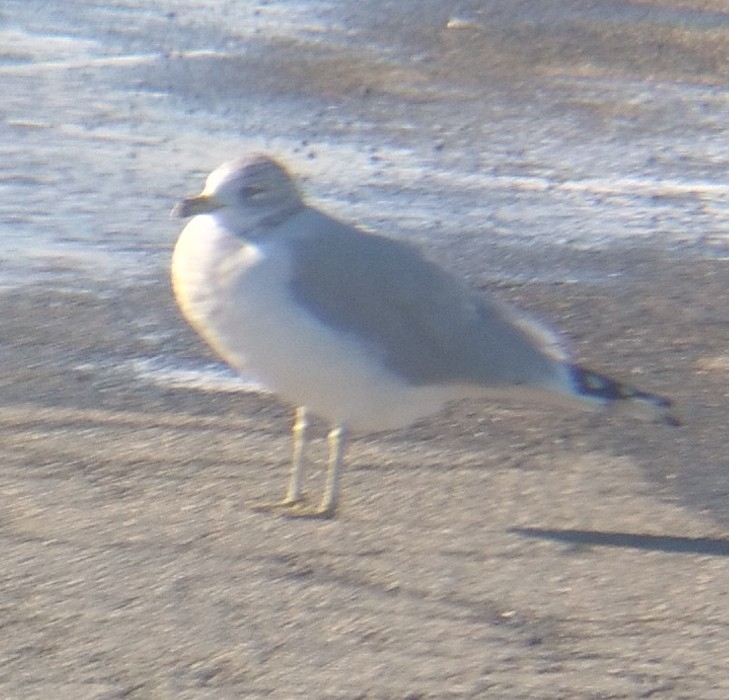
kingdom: Animalia
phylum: Chordata
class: Aves
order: Charadriiformes
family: Laridae
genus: Larus
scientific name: Larus delawarensis
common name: Ring-billed gull
